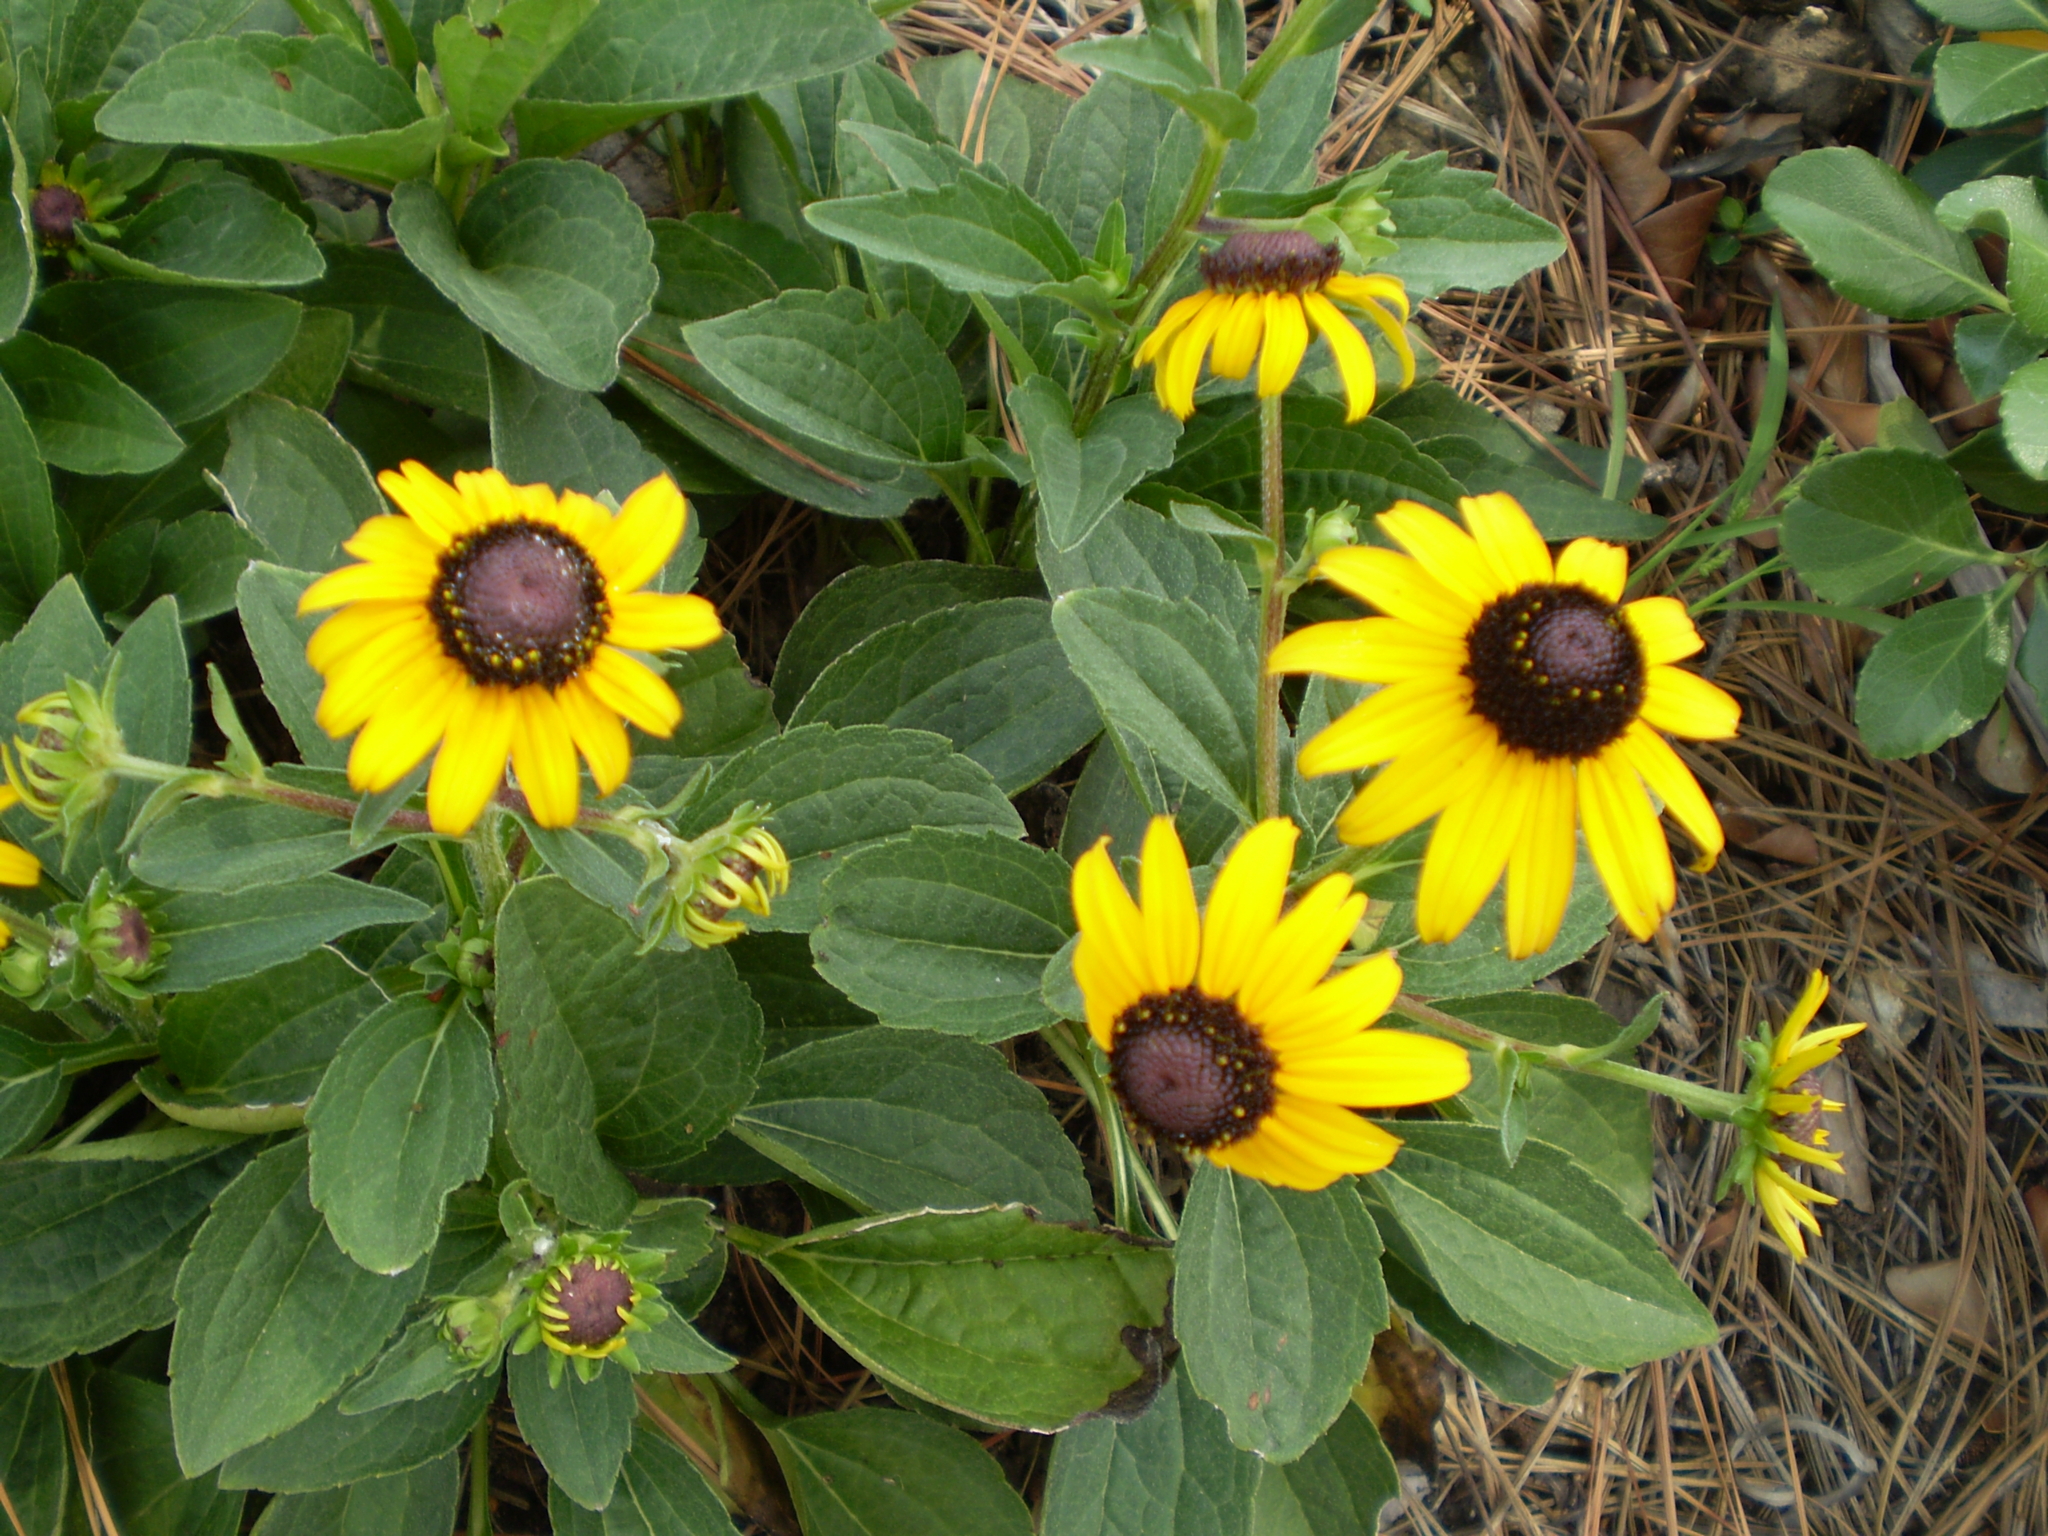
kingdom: Plantae
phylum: Tracheophyta
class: Magnoliopsida
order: Asterales
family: Asteraceae
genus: Rudbeckia
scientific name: Rudbeckia hirta
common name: Black-eyed-susan
